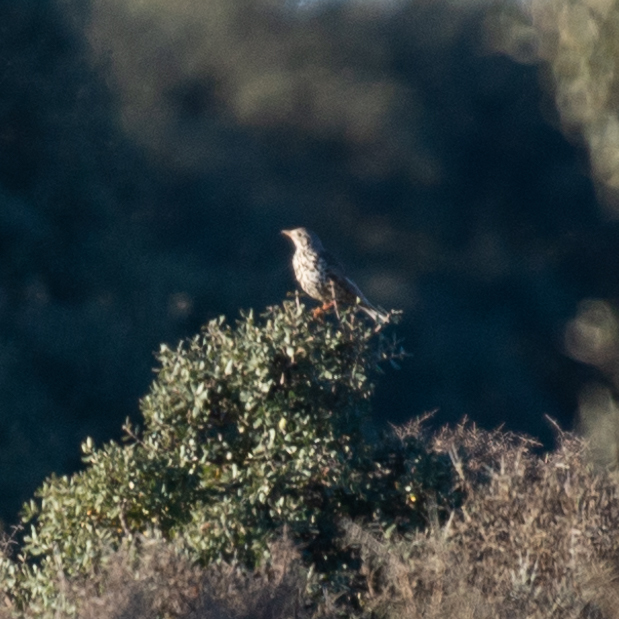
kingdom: Animalia
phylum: Chordata
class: Aves
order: Passeriformes
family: Turdidae
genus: Turdus
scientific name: Turdus viscivorus
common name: Mistle thrush
